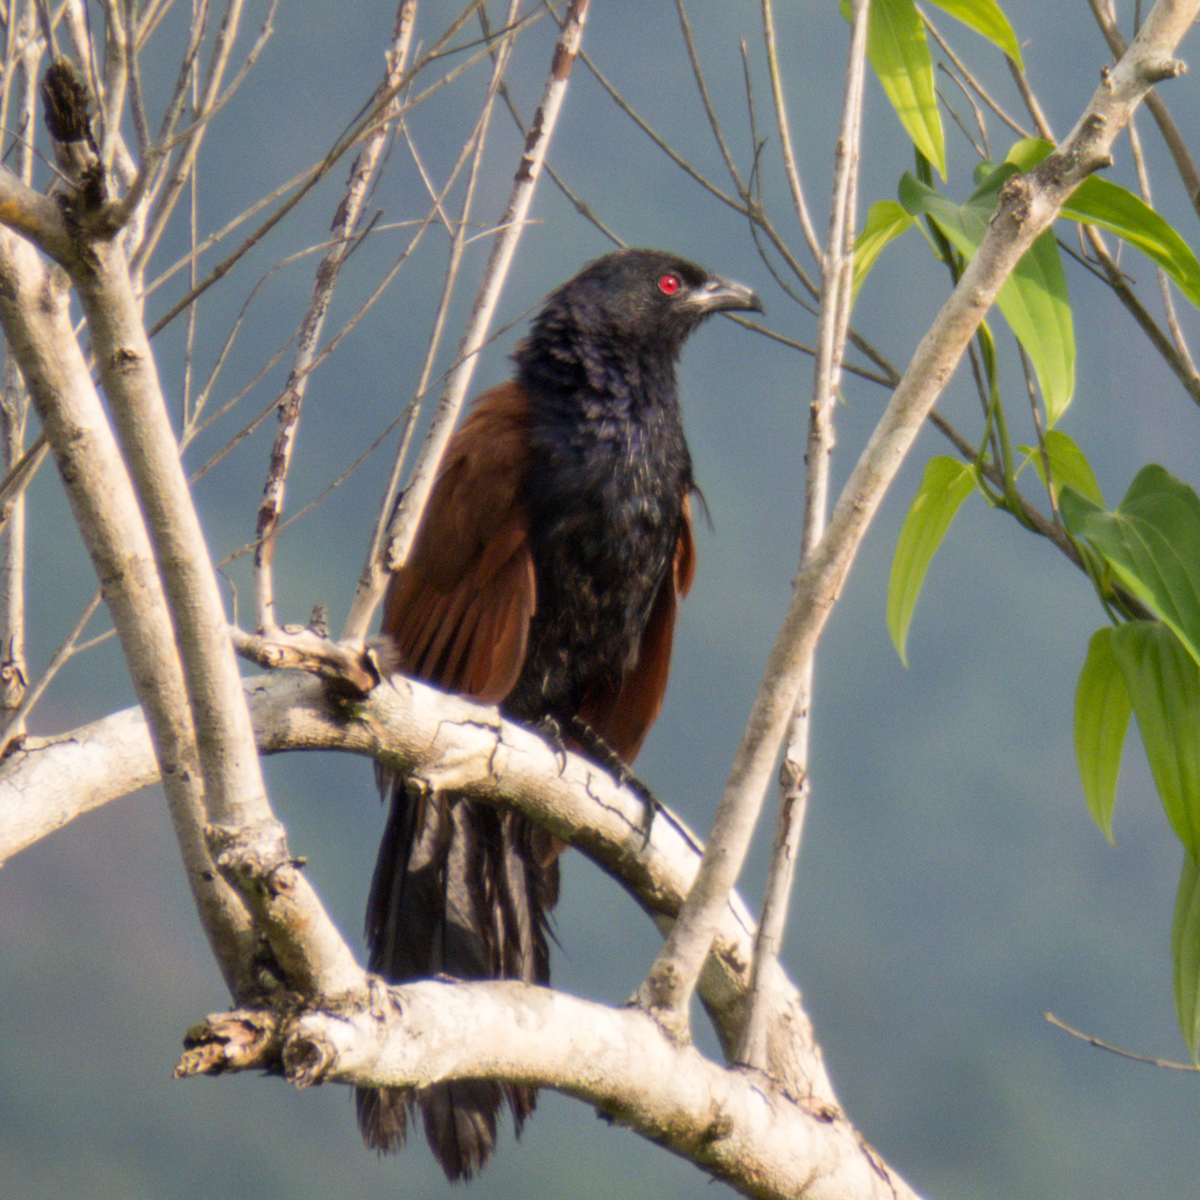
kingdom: Animalia
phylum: Chordata
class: Aves
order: Cuculiformes
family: Cuculidae
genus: Centropus
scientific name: Centropus sinensis
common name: Greater coucal
